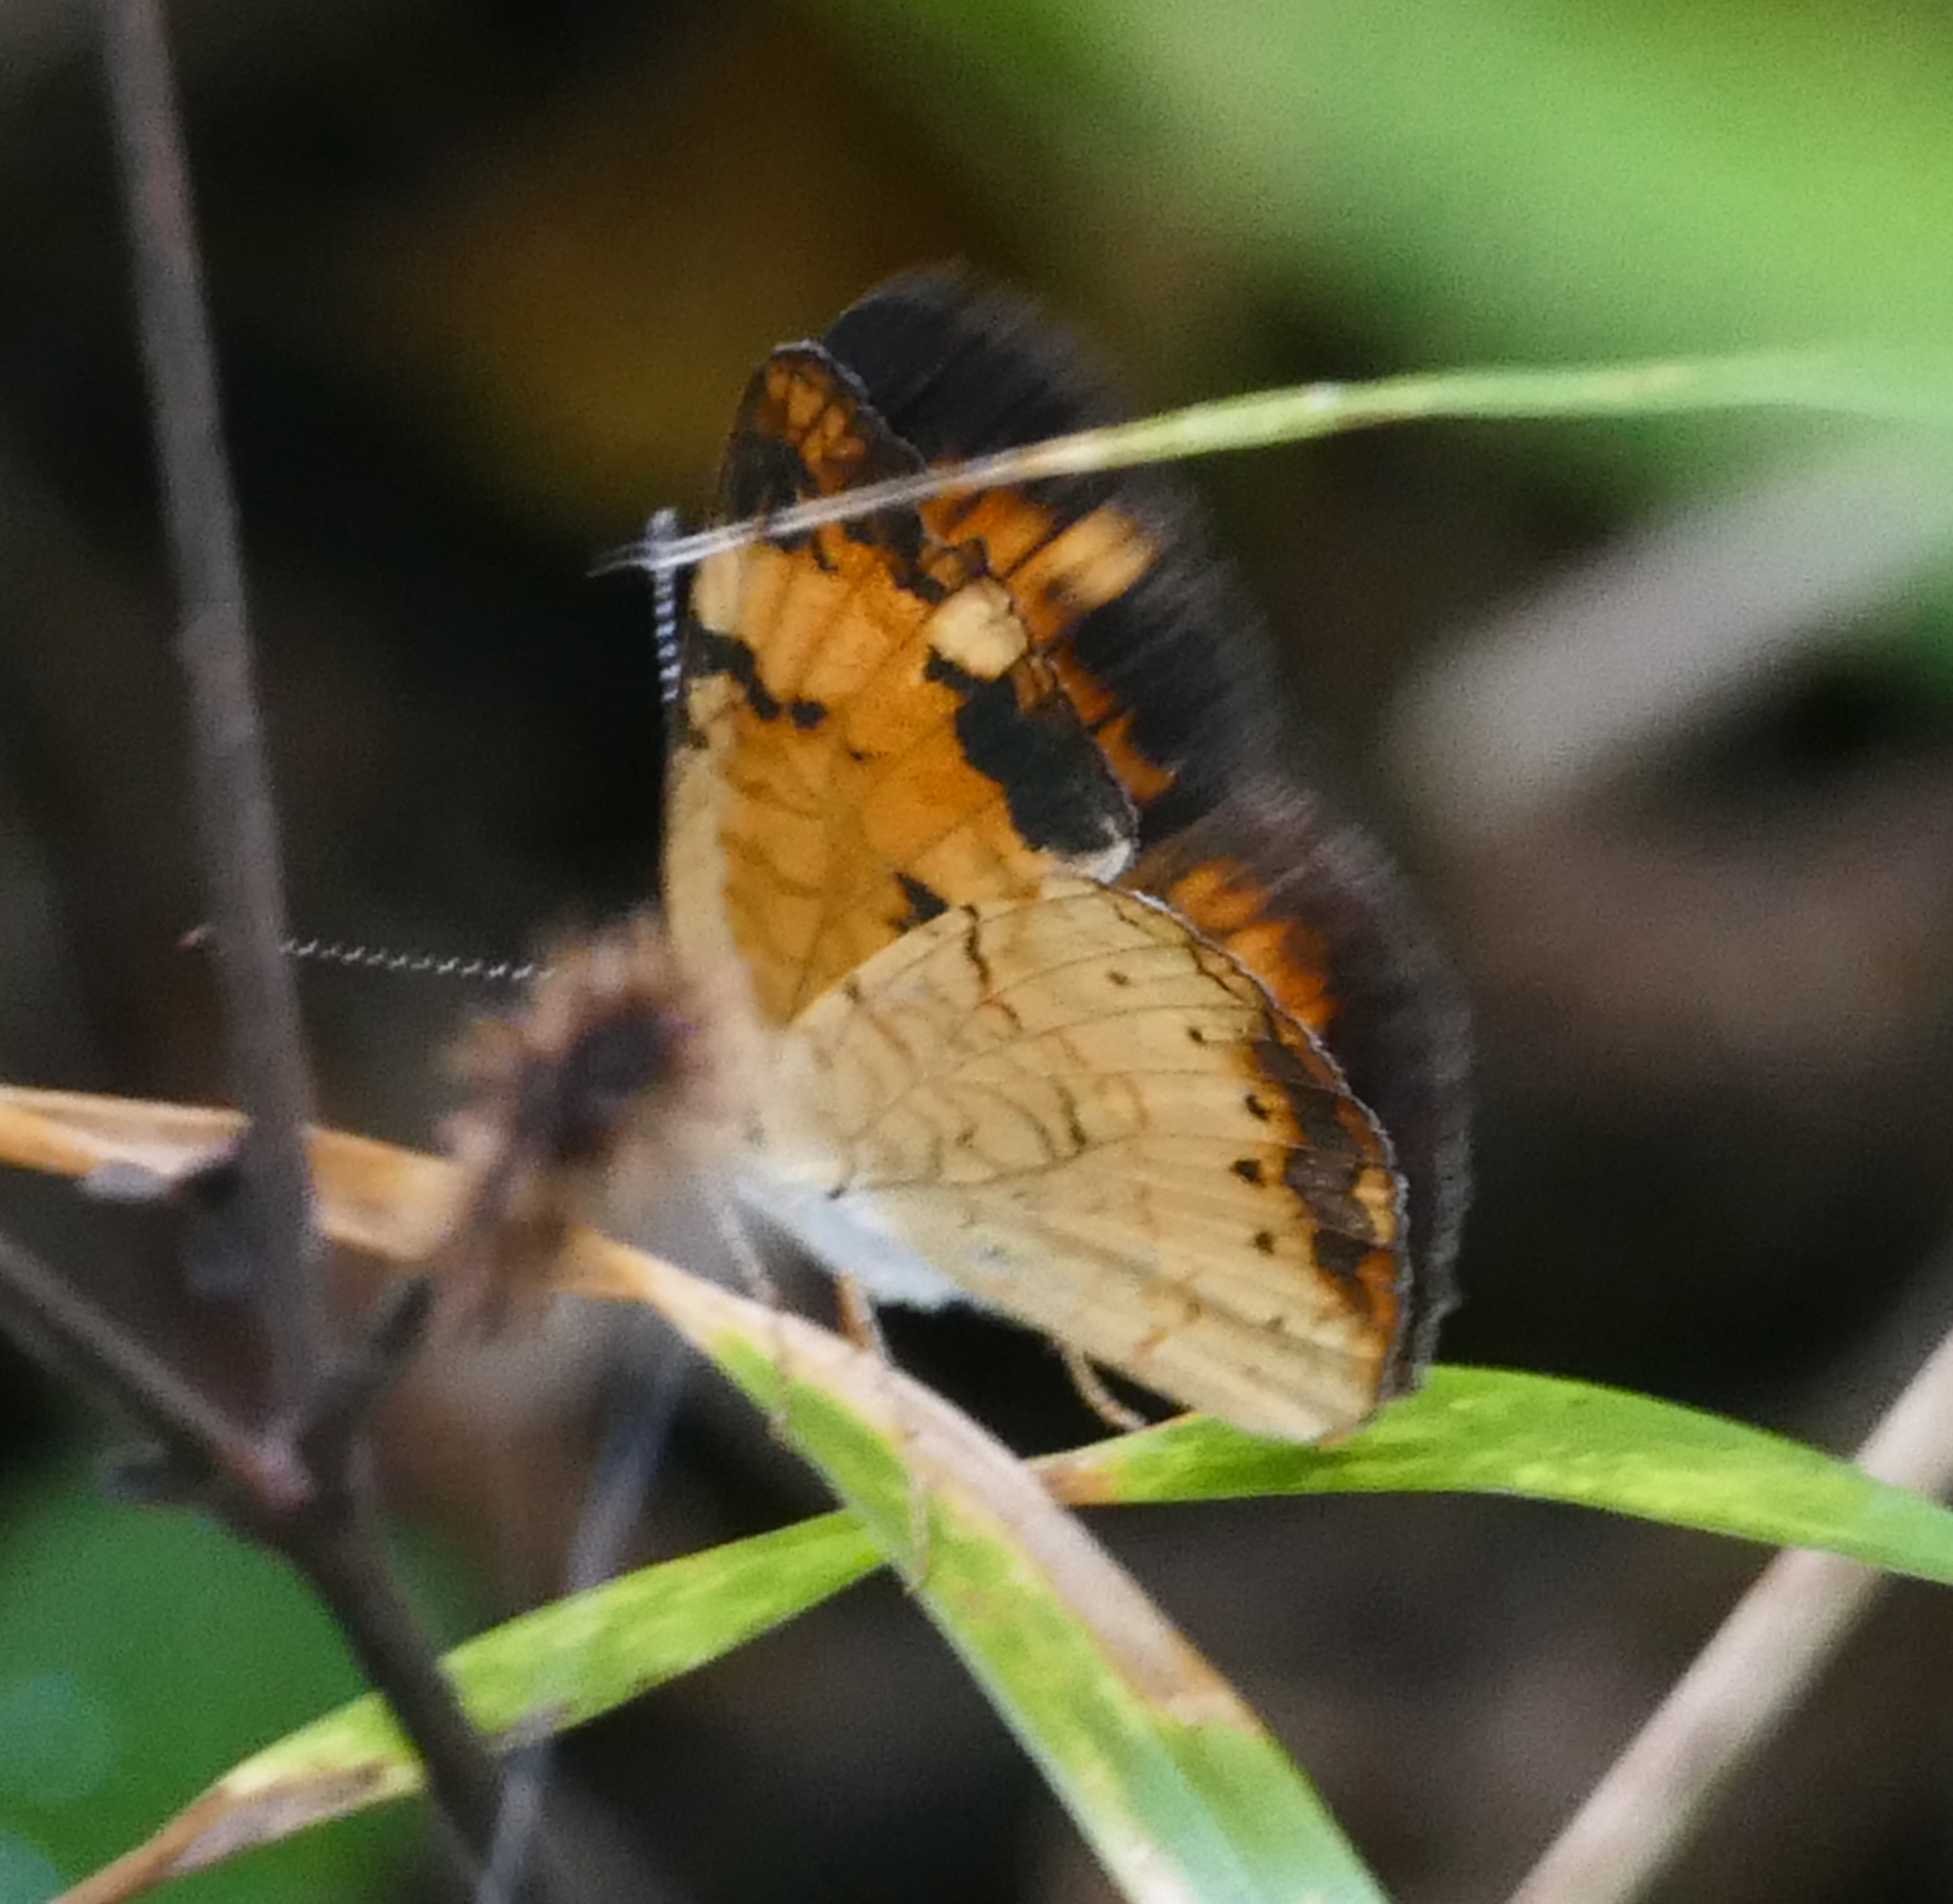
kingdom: Animalia
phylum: Arthropoda
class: Insecta
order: Lepidoptera
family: Nymphalidae
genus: Phyciodes
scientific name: Phyciodes tharos
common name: Pearl crescent
